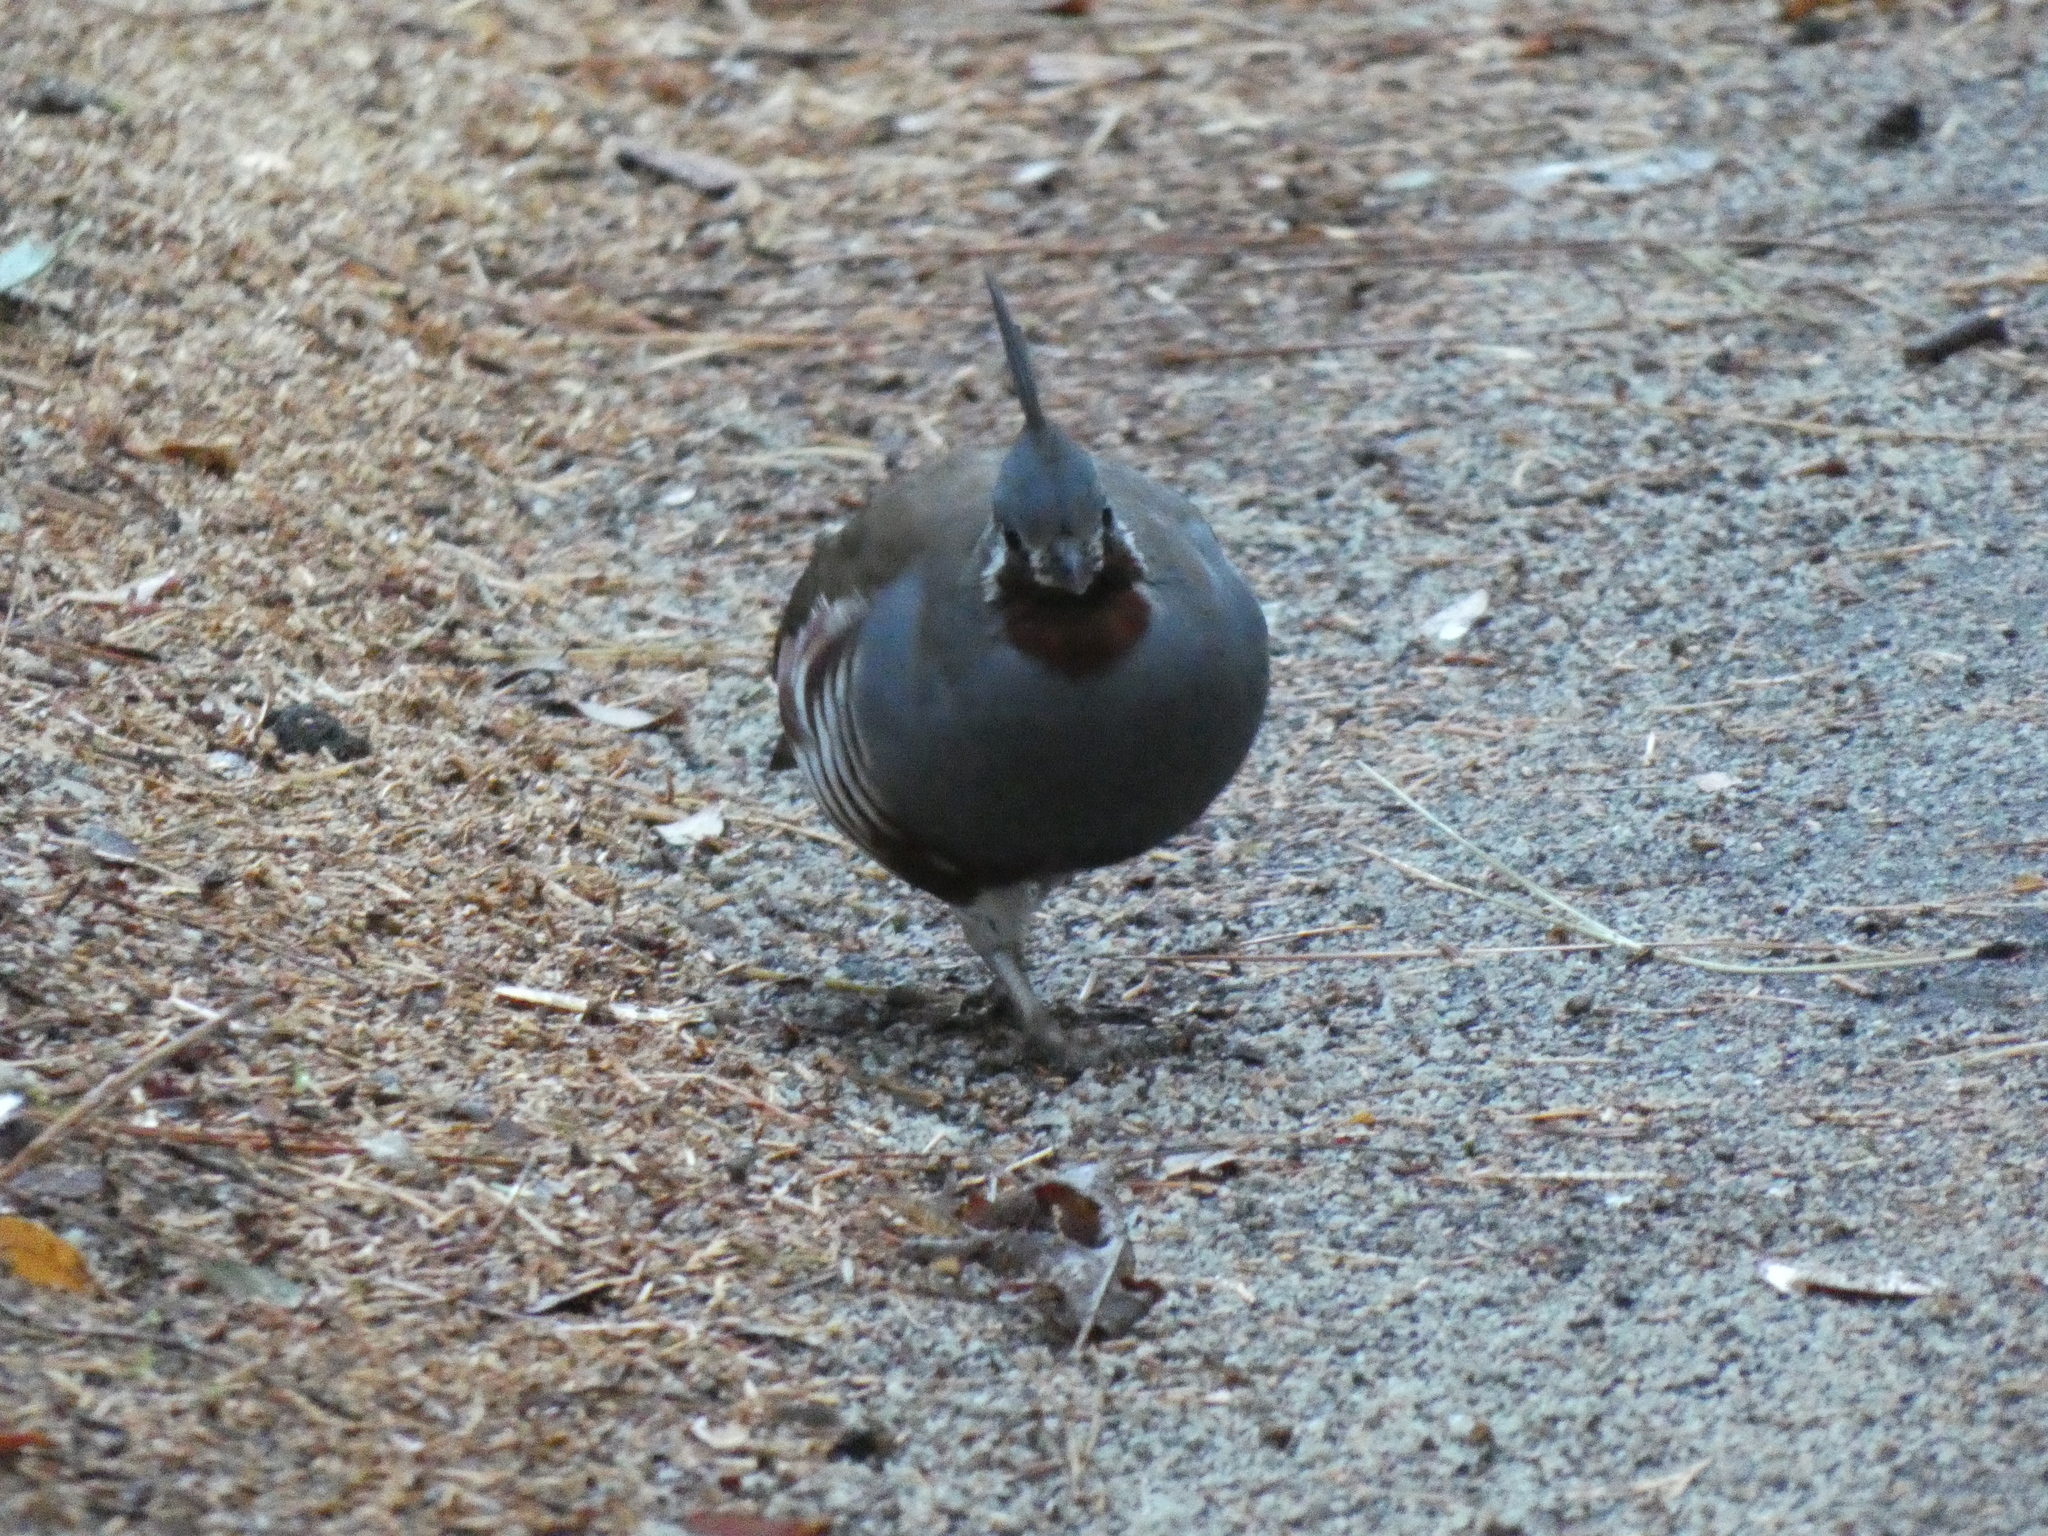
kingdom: Animalia
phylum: Chordata
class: Aves
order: Galliformes
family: Odontophoridae
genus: Oreortyx
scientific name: Oreortyx pictus
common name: Mountain quail
